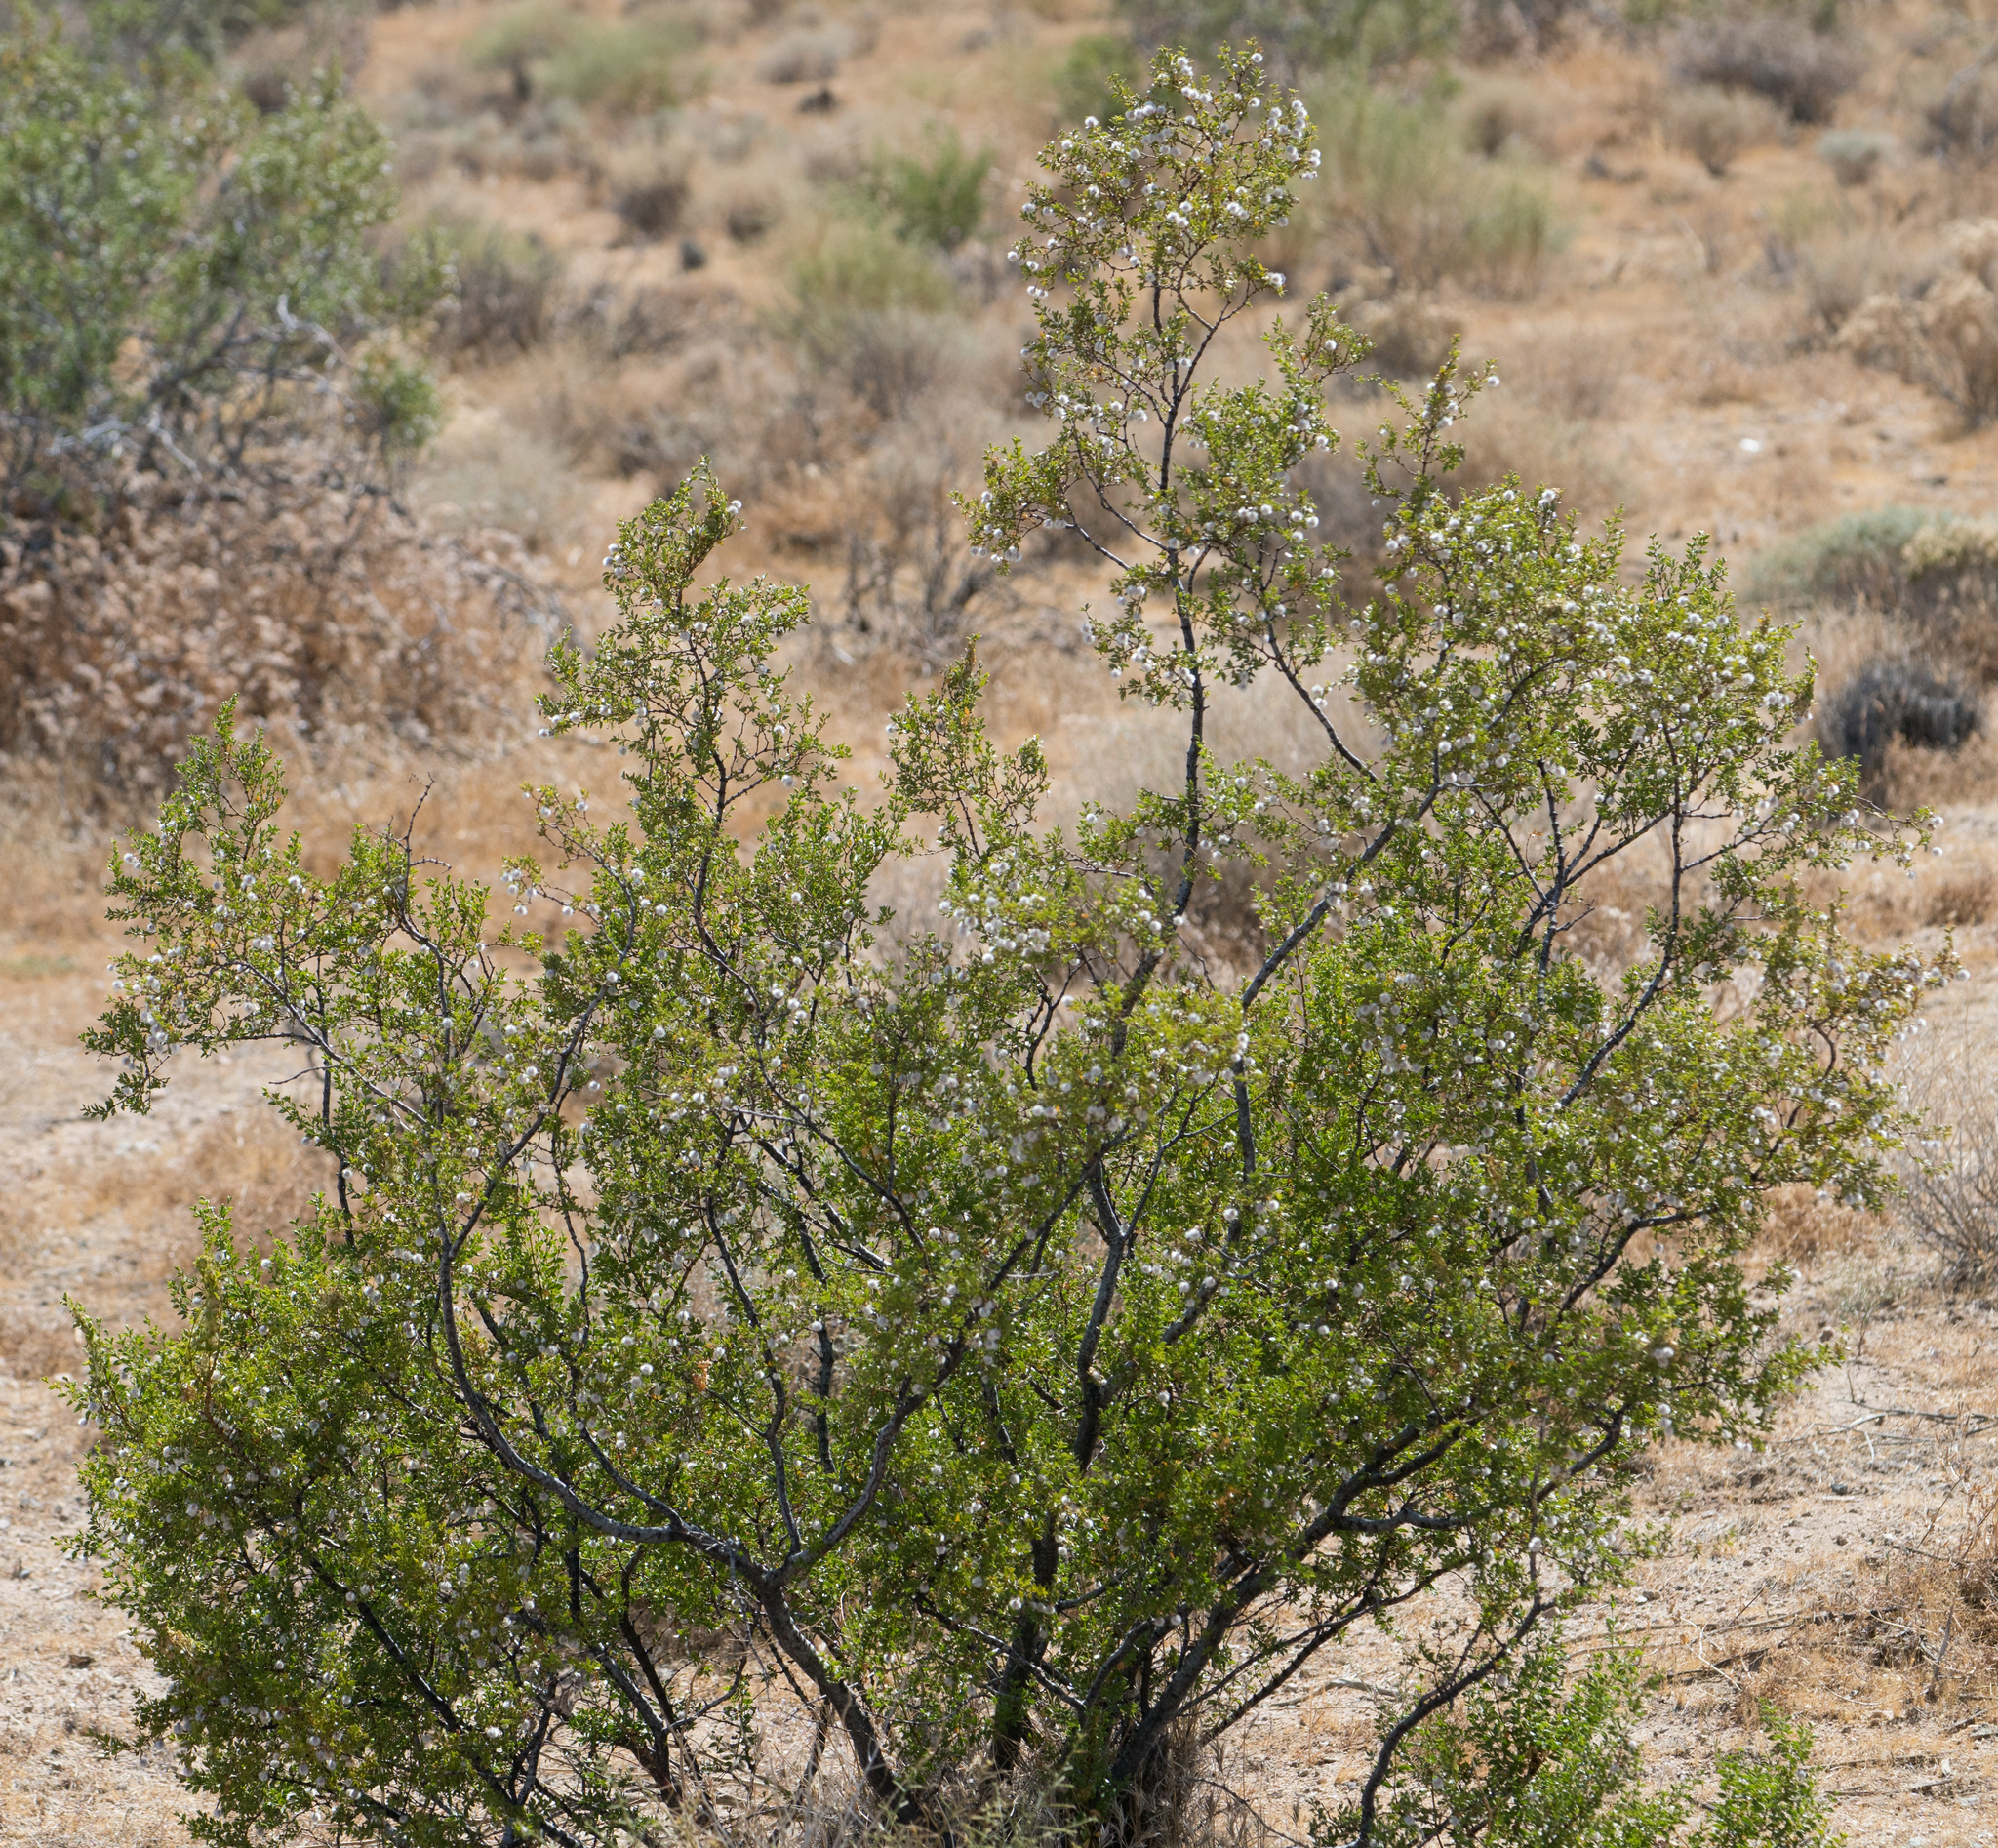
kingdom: Plantae
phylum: Tracheophyta
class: Magnoliopsida
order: Zygophyllales
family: Zygophyllaceae
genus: Larrea
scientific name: Larrea tridentata
